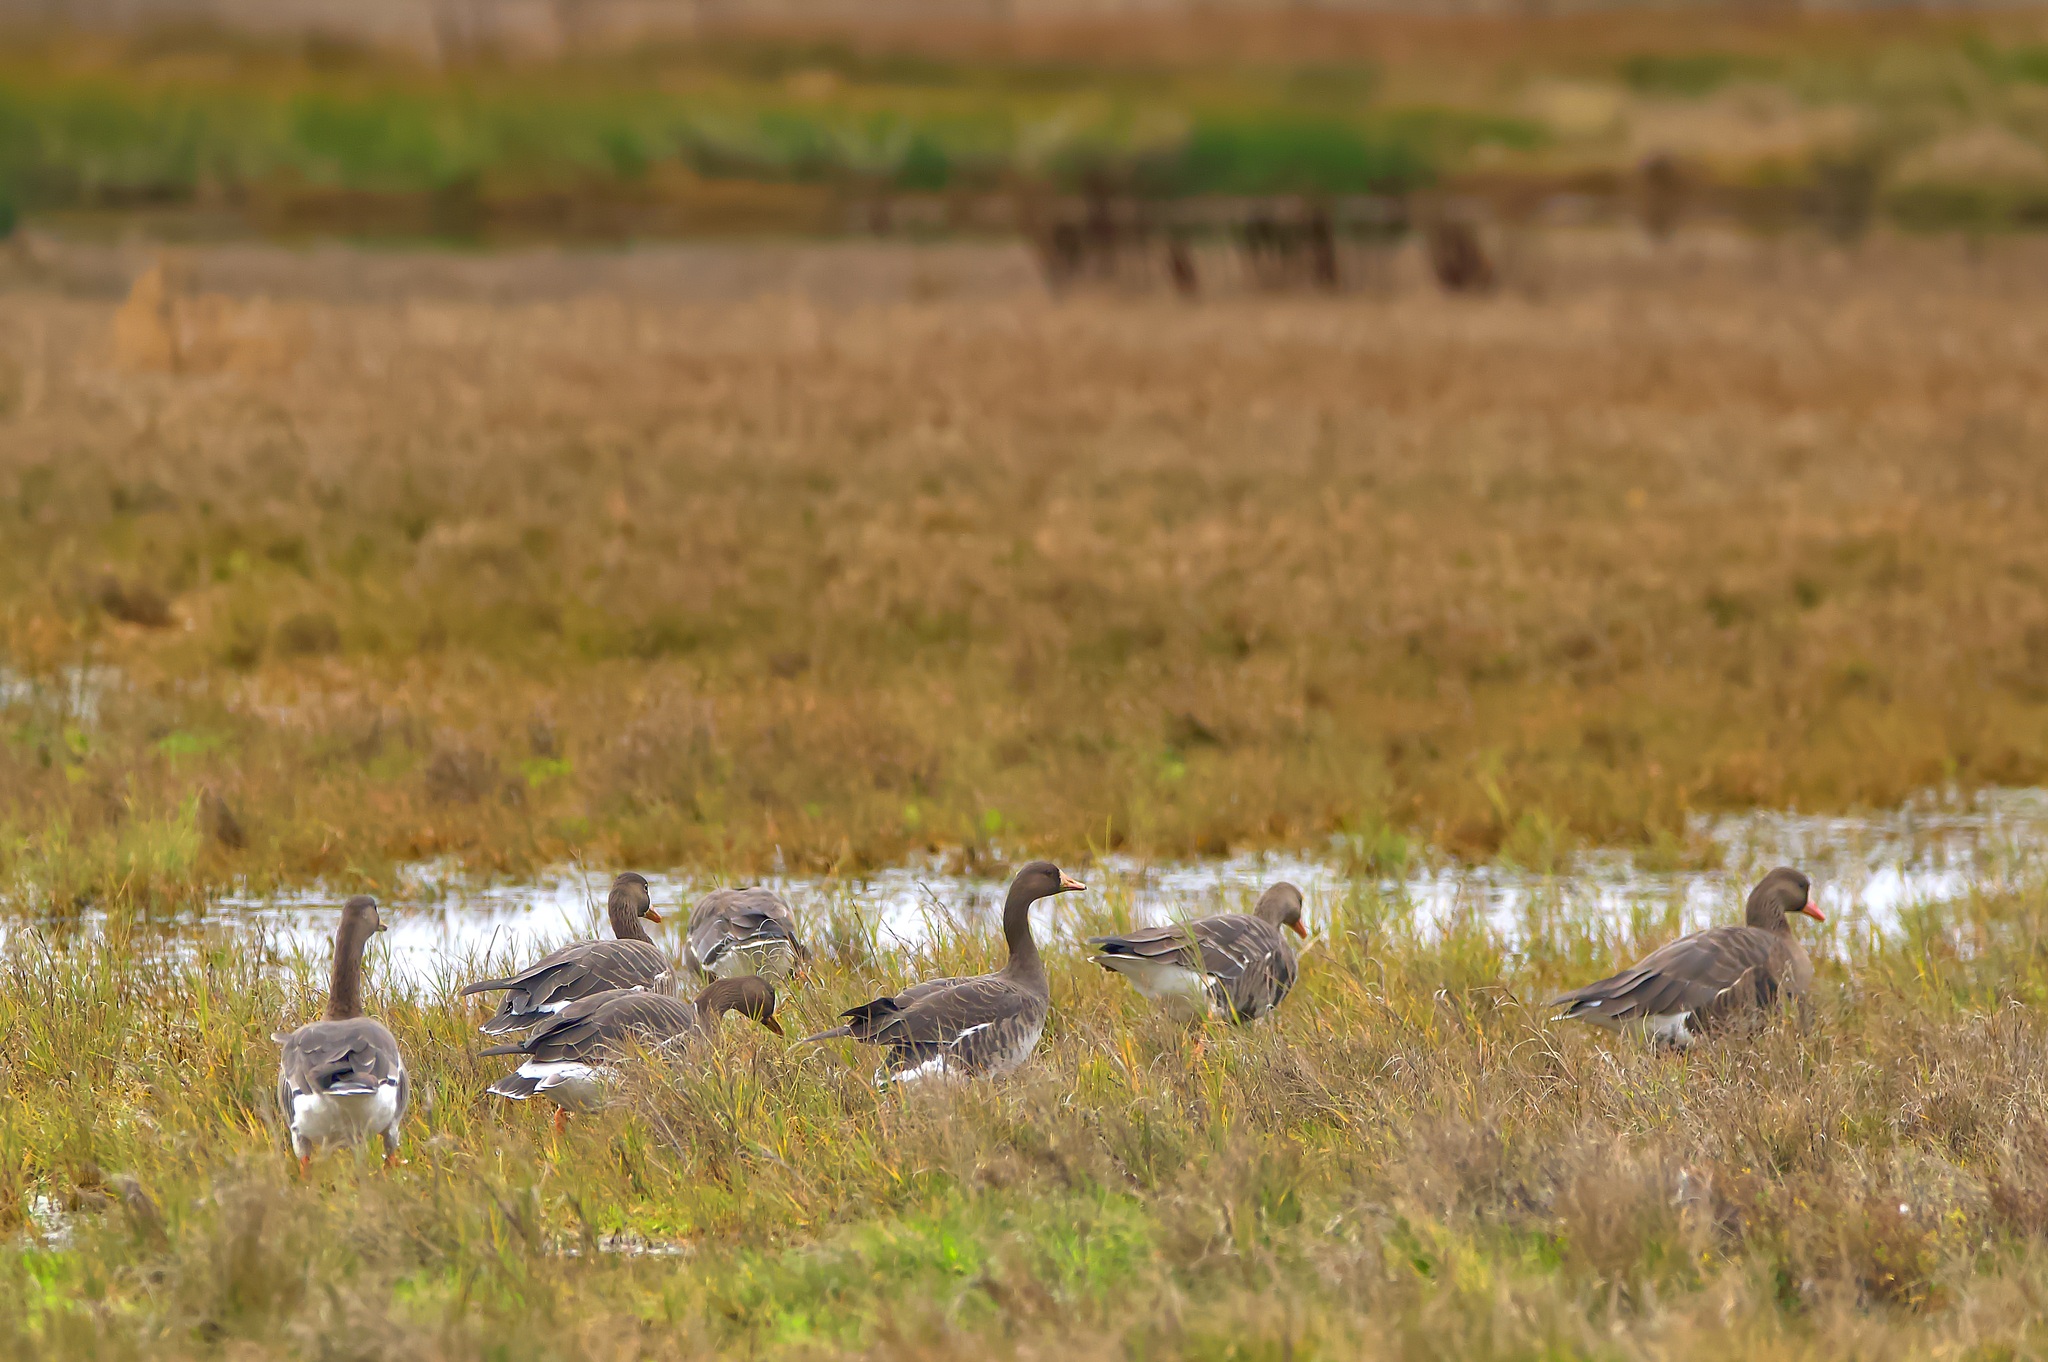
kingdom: Animalia
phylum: Chordata
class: Aves
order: Anseriformes
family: Anatidae
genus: Anser
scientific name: Anser albifrons
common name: Greater white-fronted goose
